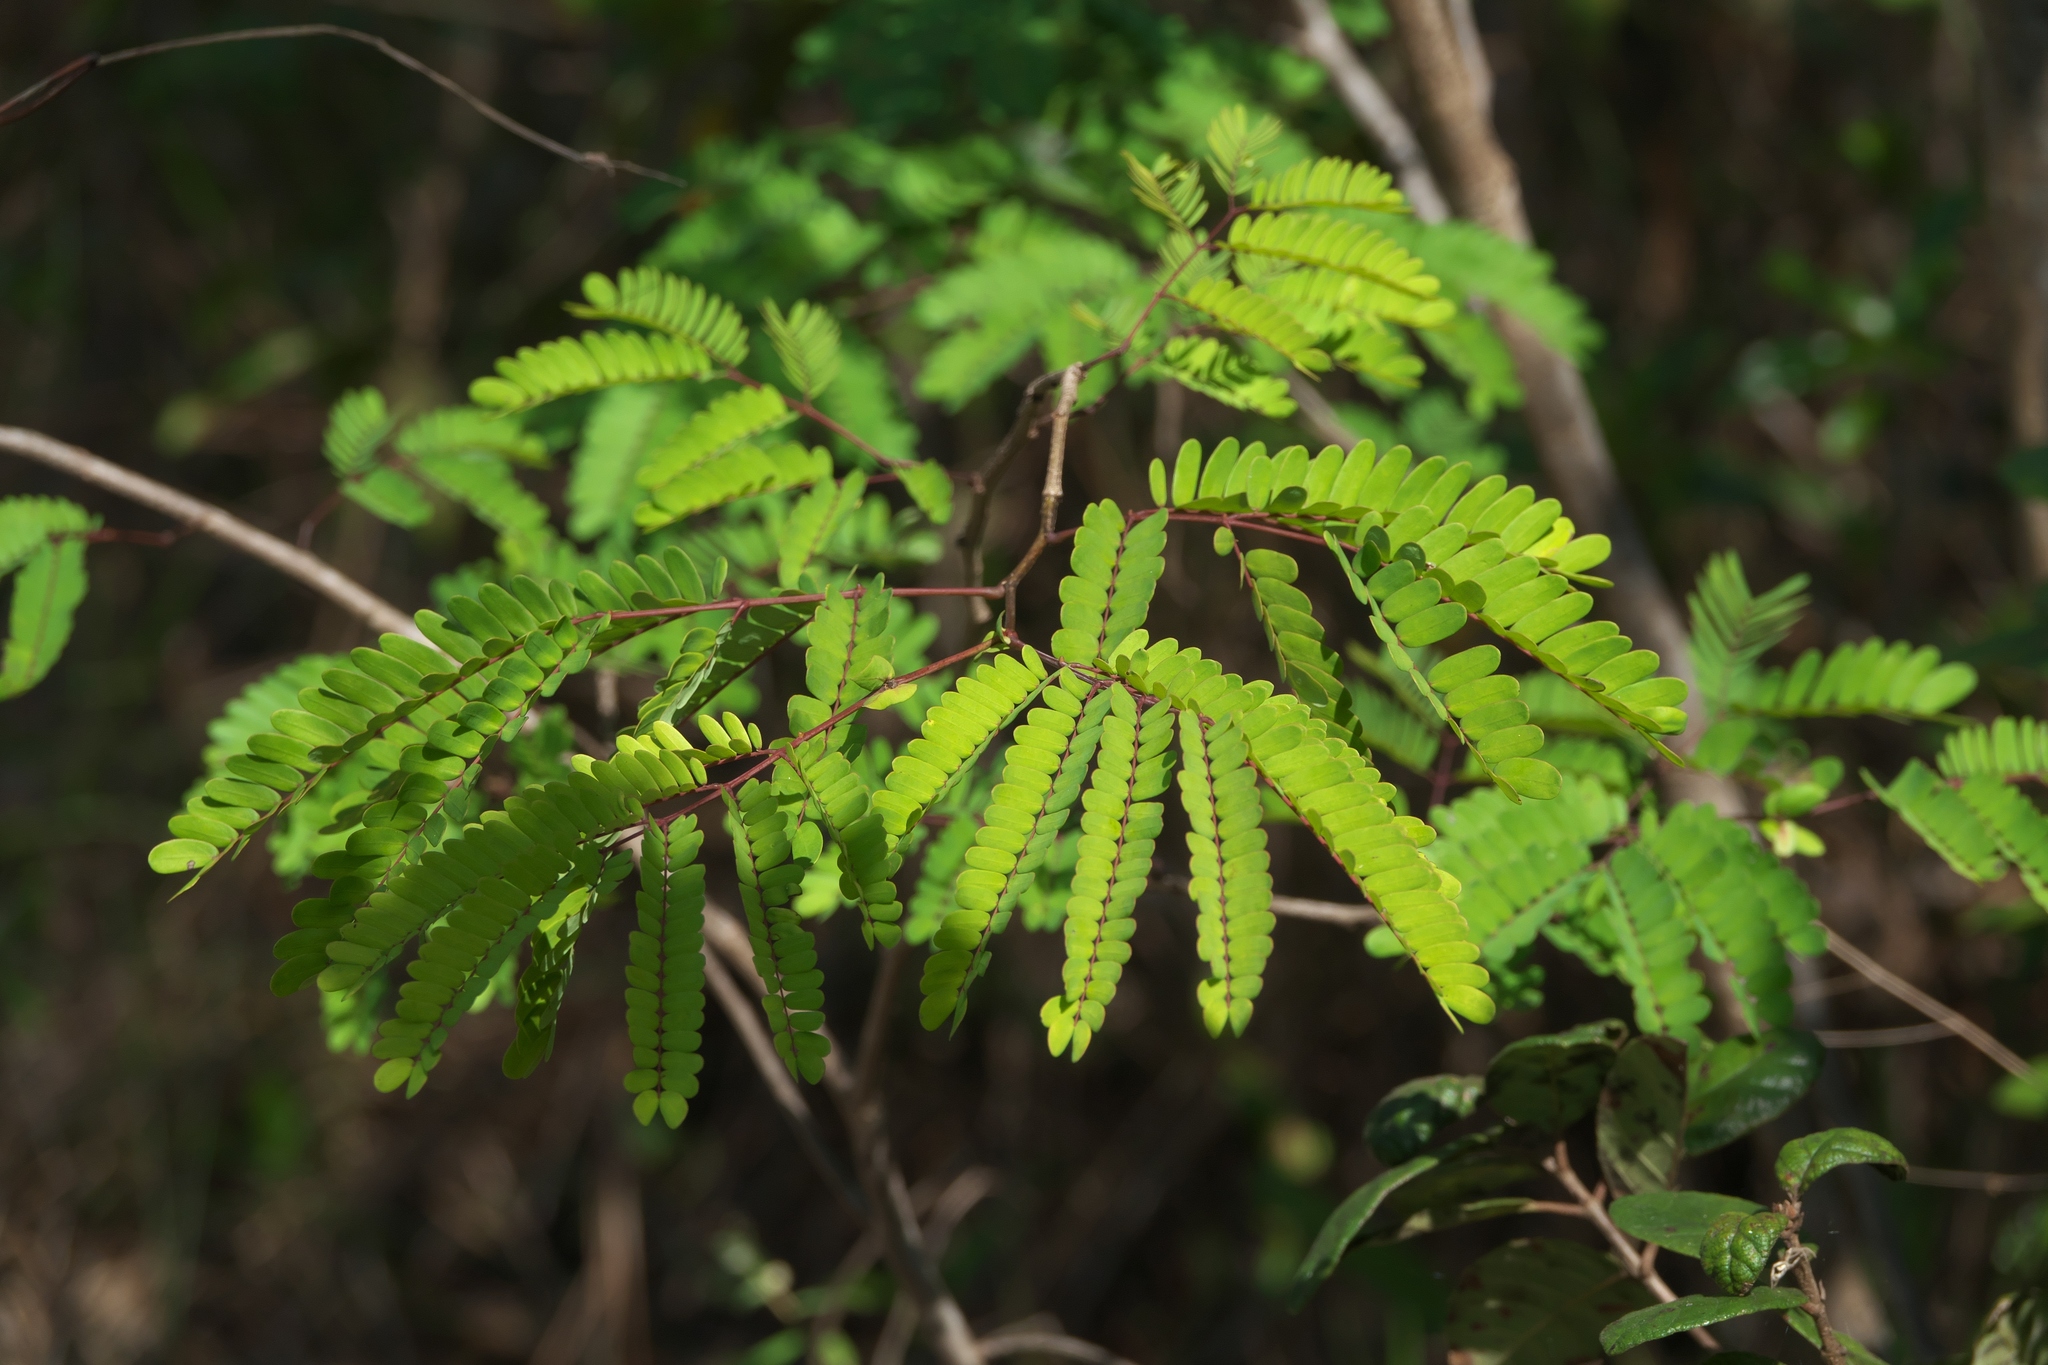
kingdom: Plantae
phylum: Tracheophyta
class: Magnoliopsida
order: Fabales
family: Fabaceae
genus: Lysiloma
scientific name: Lysiloma latisiliquum
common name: Wild tamarind
